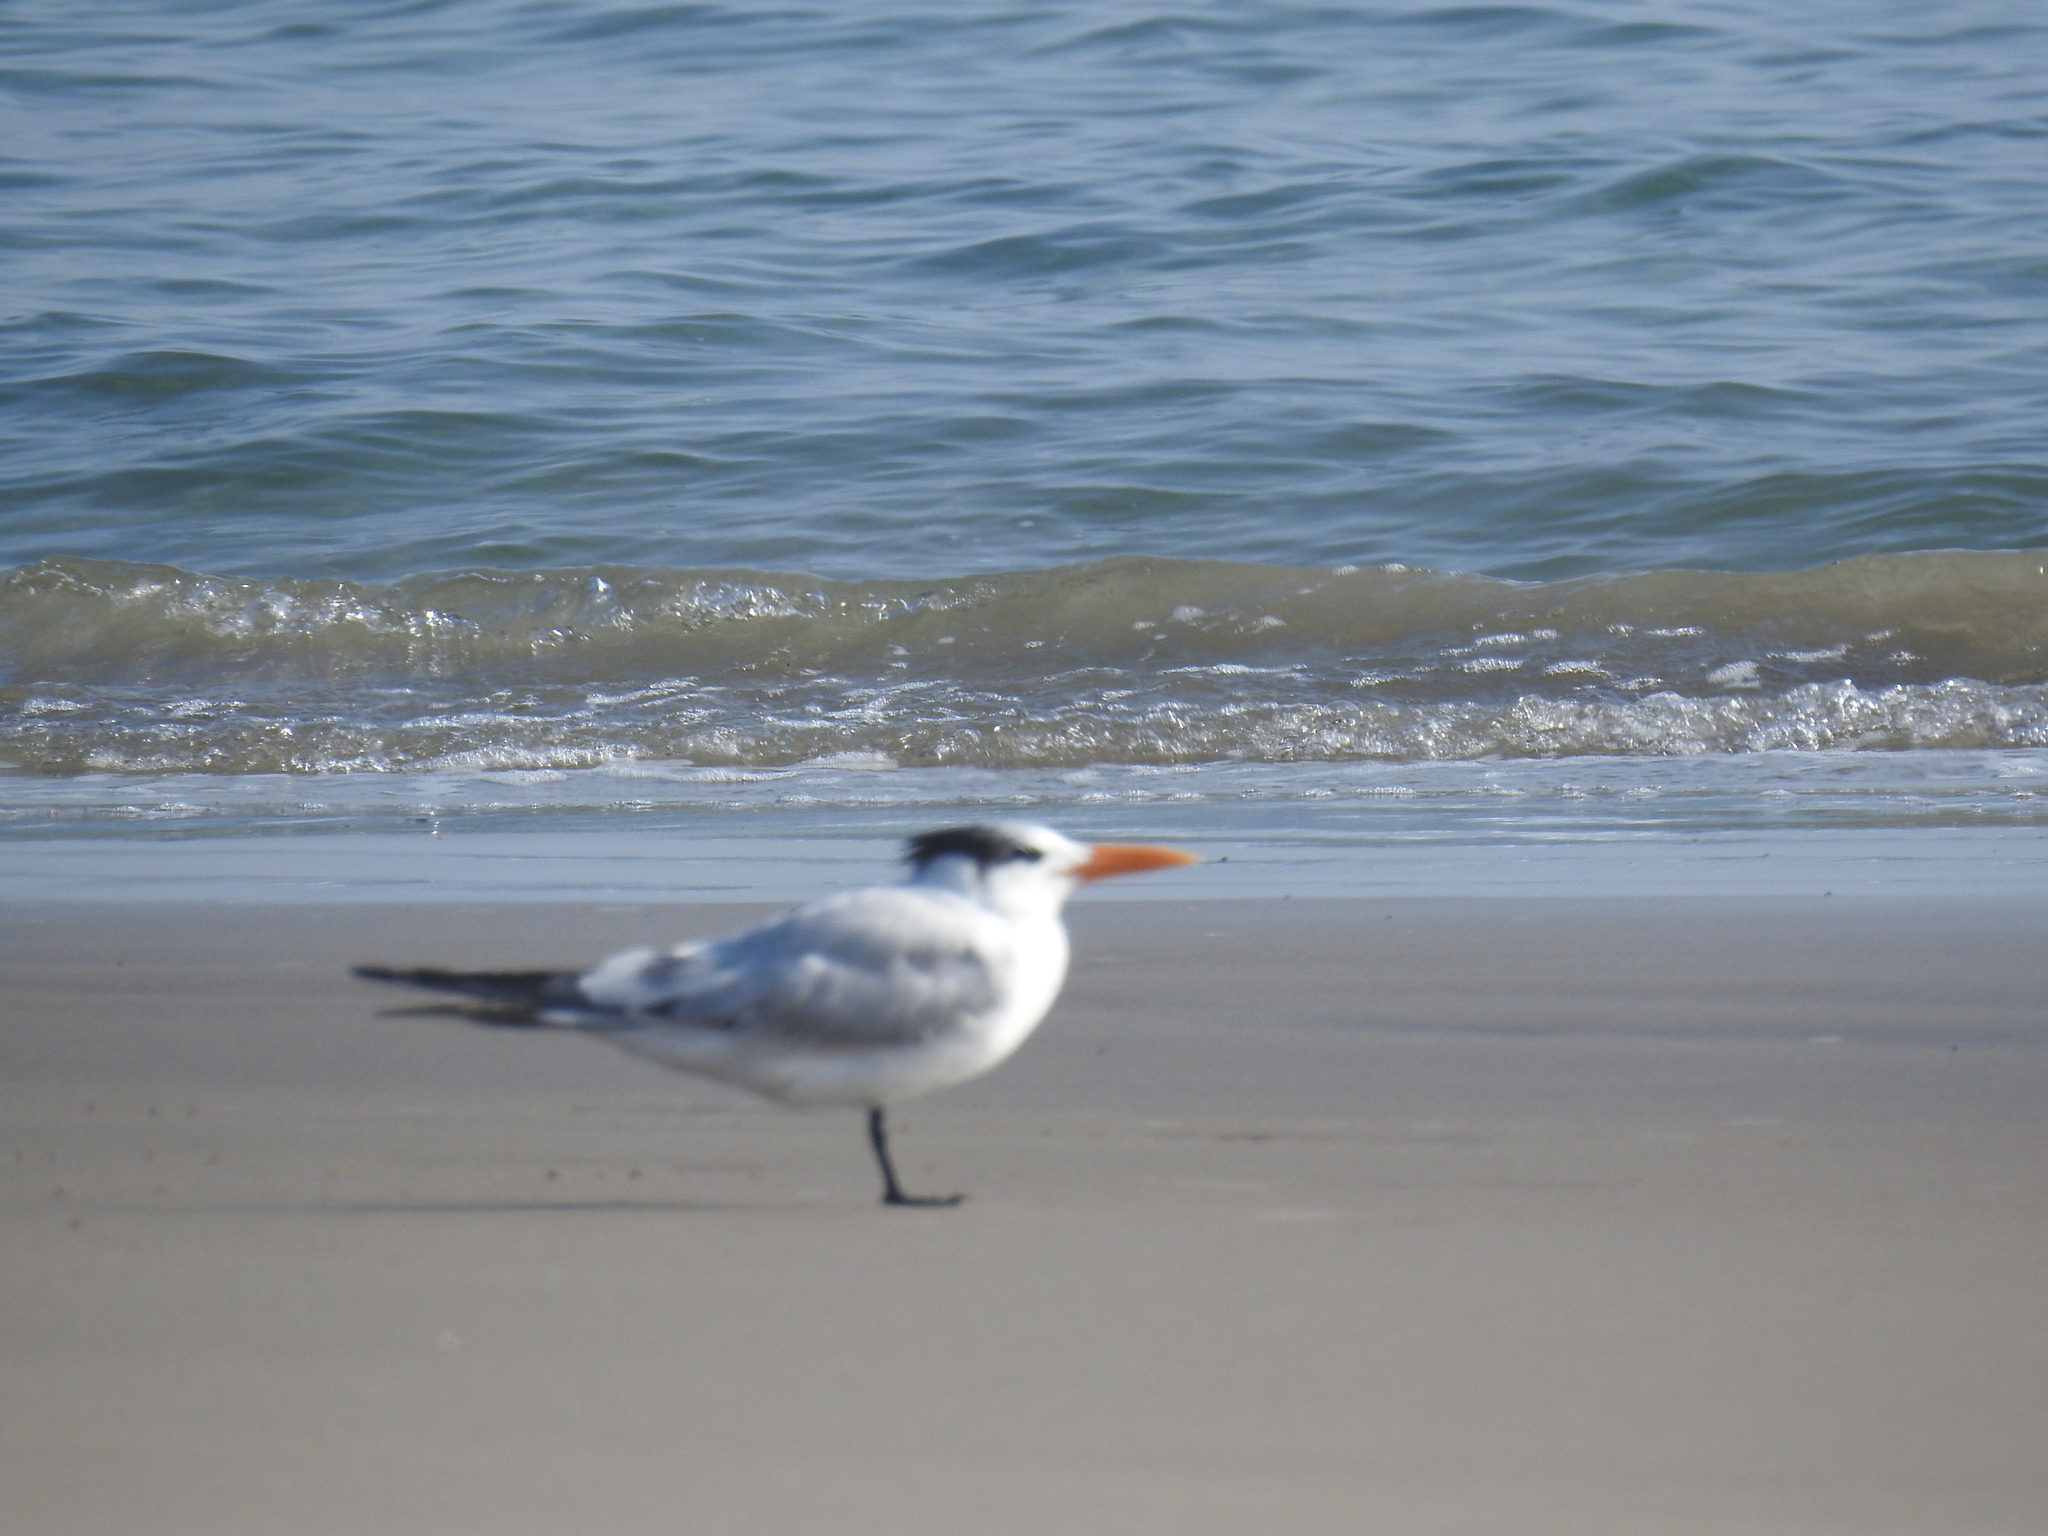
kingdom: Animalia
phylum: Chordata
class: Aves
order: Charadriiformes
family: Laridae
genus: Thalasseus
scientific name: Thalasseus maximus
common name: Royal tern
